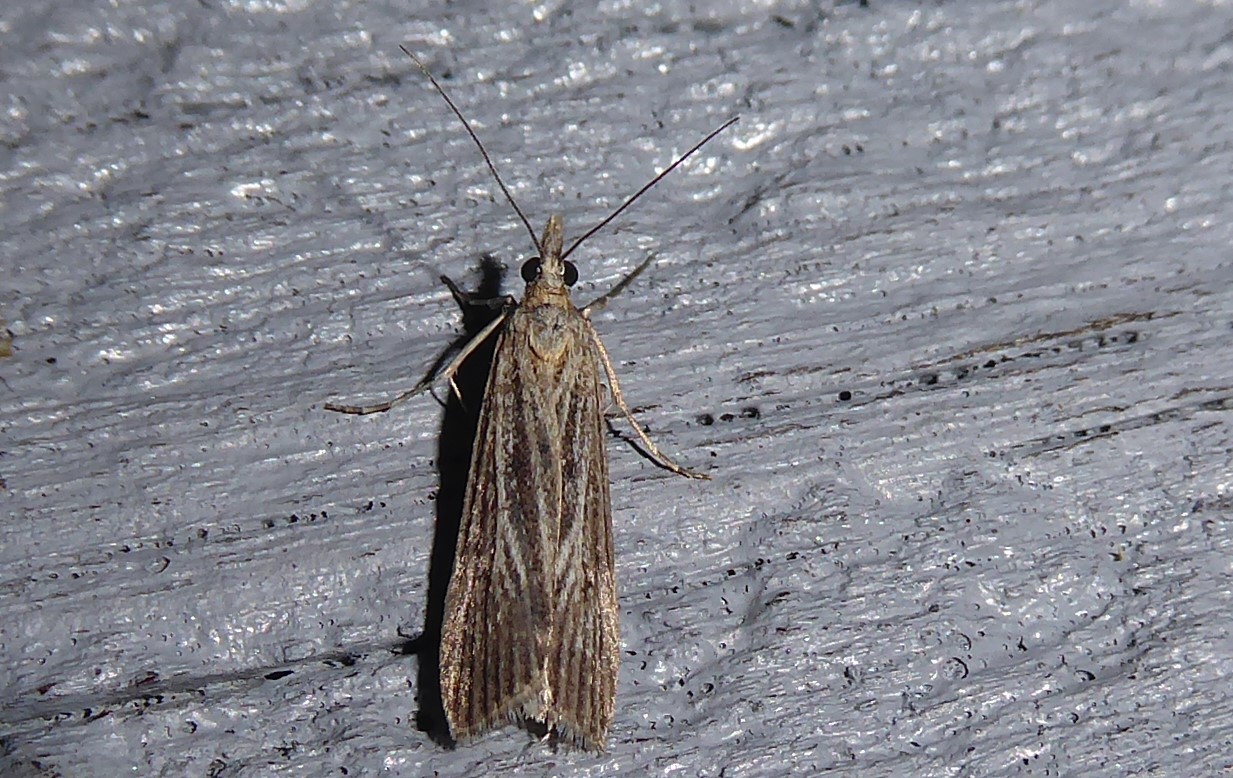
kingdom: Animalia
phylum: Arthropoda
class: Insecta
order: Lepidoptera
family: Crambidae
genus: Eudonia
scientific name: Eudonia atmogramma
